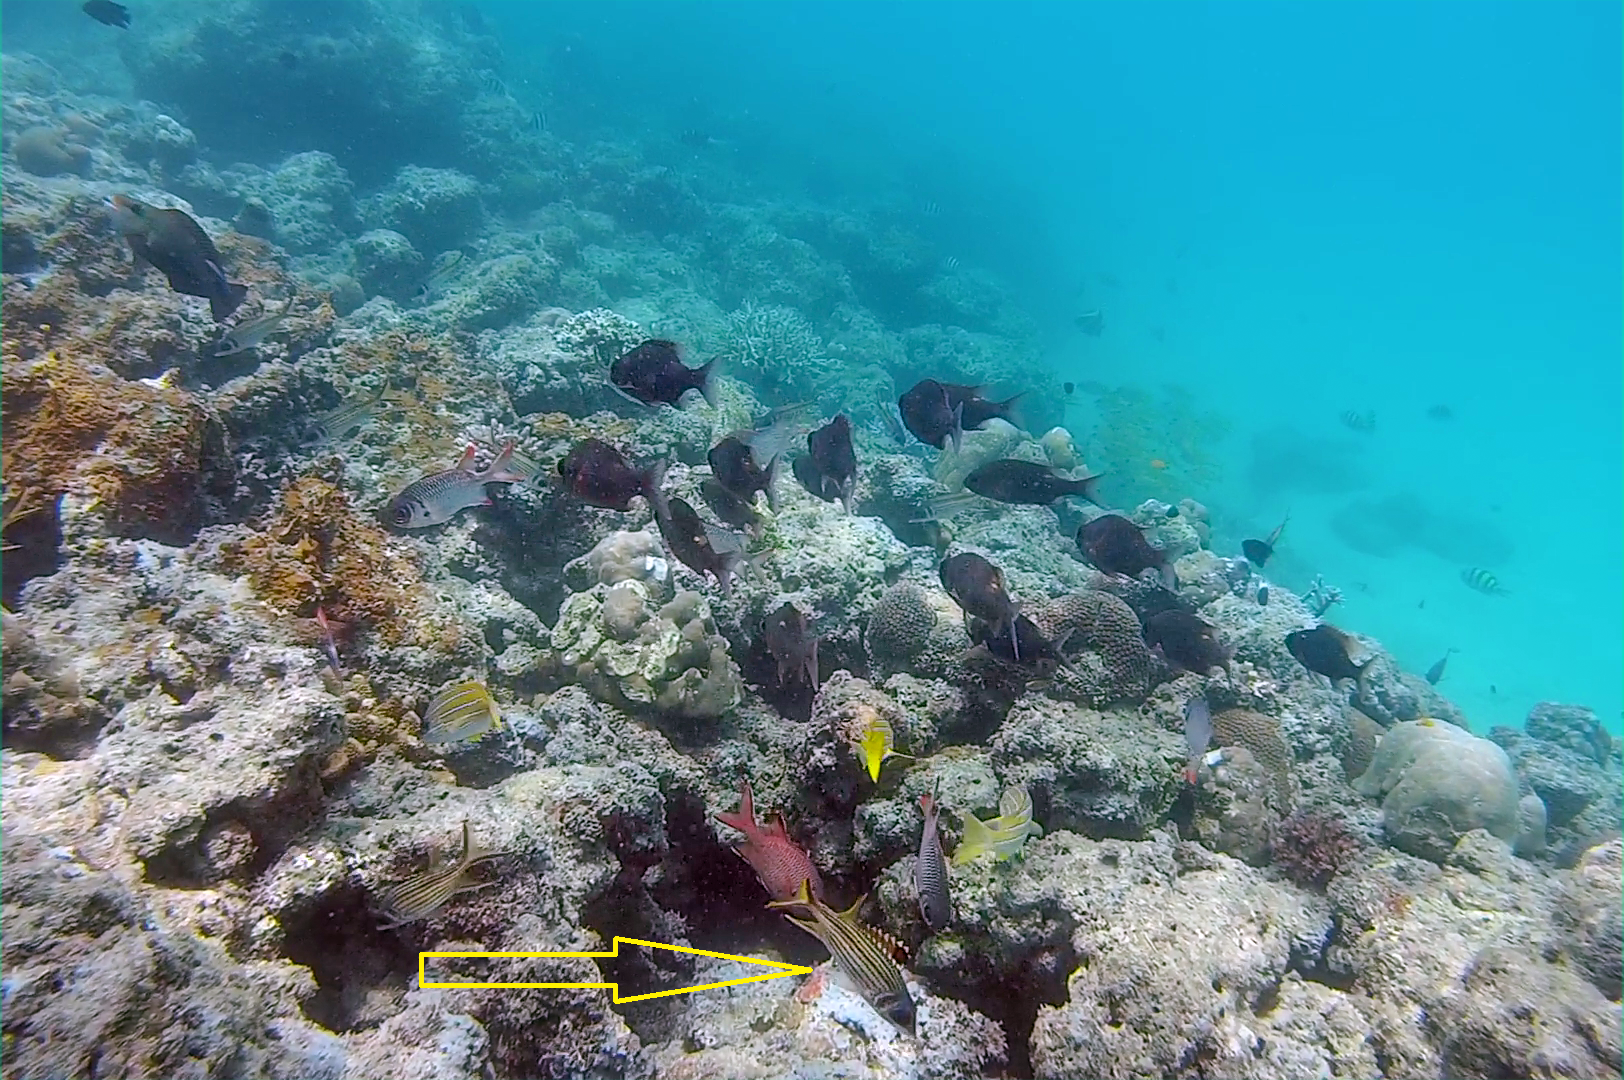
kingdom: Animalia
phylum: Chordata
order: Beryciformes
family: Holocentridae
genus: Neoniphon
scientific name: Neoniphon sammara
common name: Sammara squirrelfish
